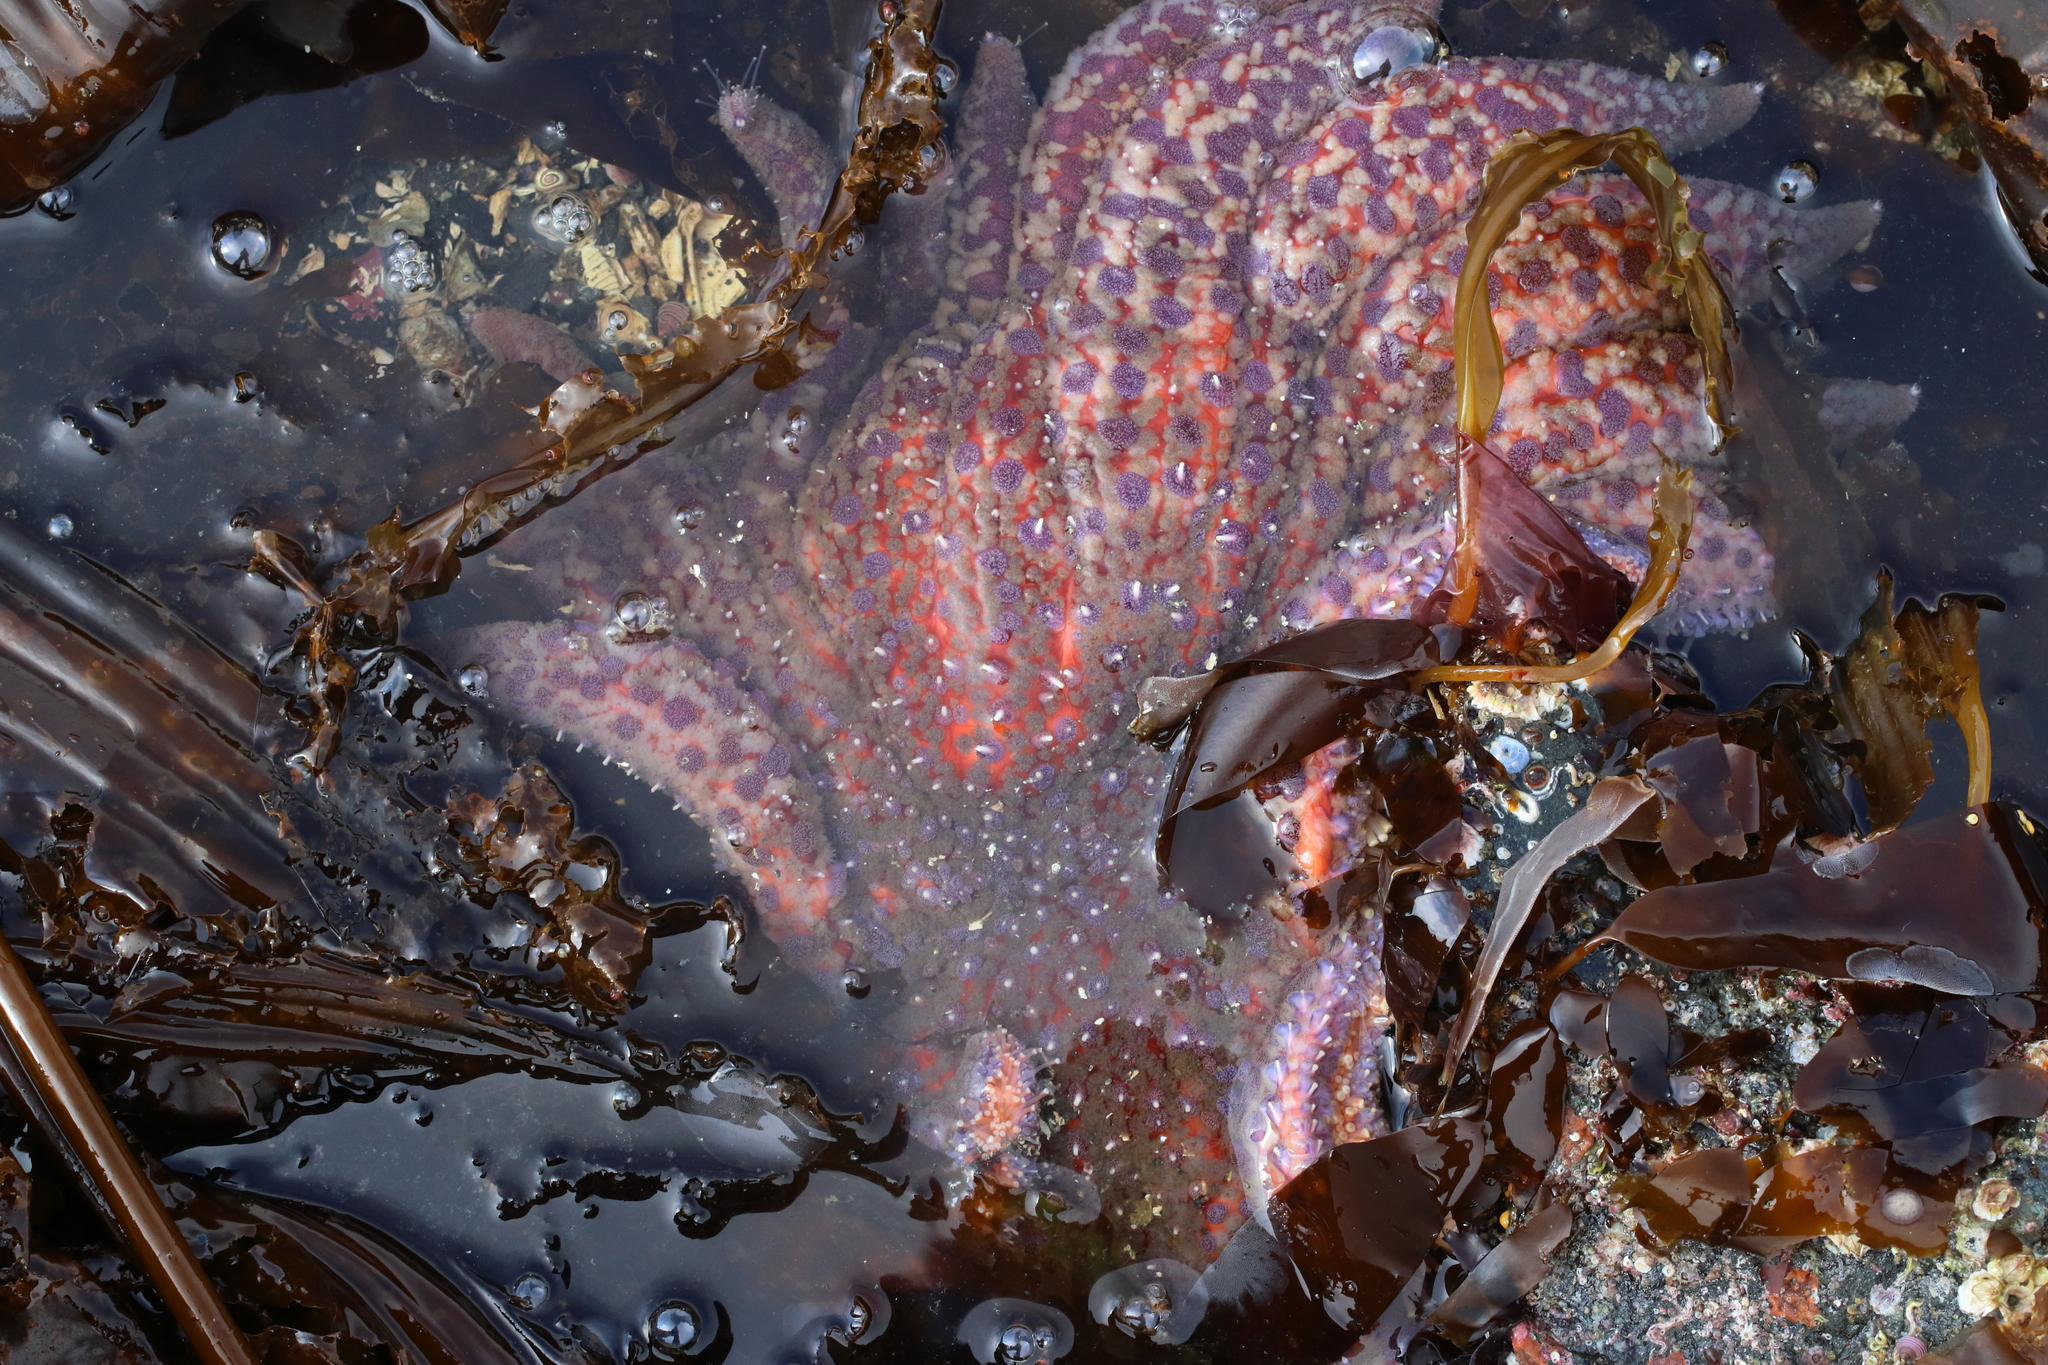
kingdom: Animalia
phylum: Echinodermata
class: Asteroidea
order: Forcipulatida
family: Asteriidae
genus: Pycnopodia
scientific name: Pycnopodia helianthoides
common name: Rag mop
